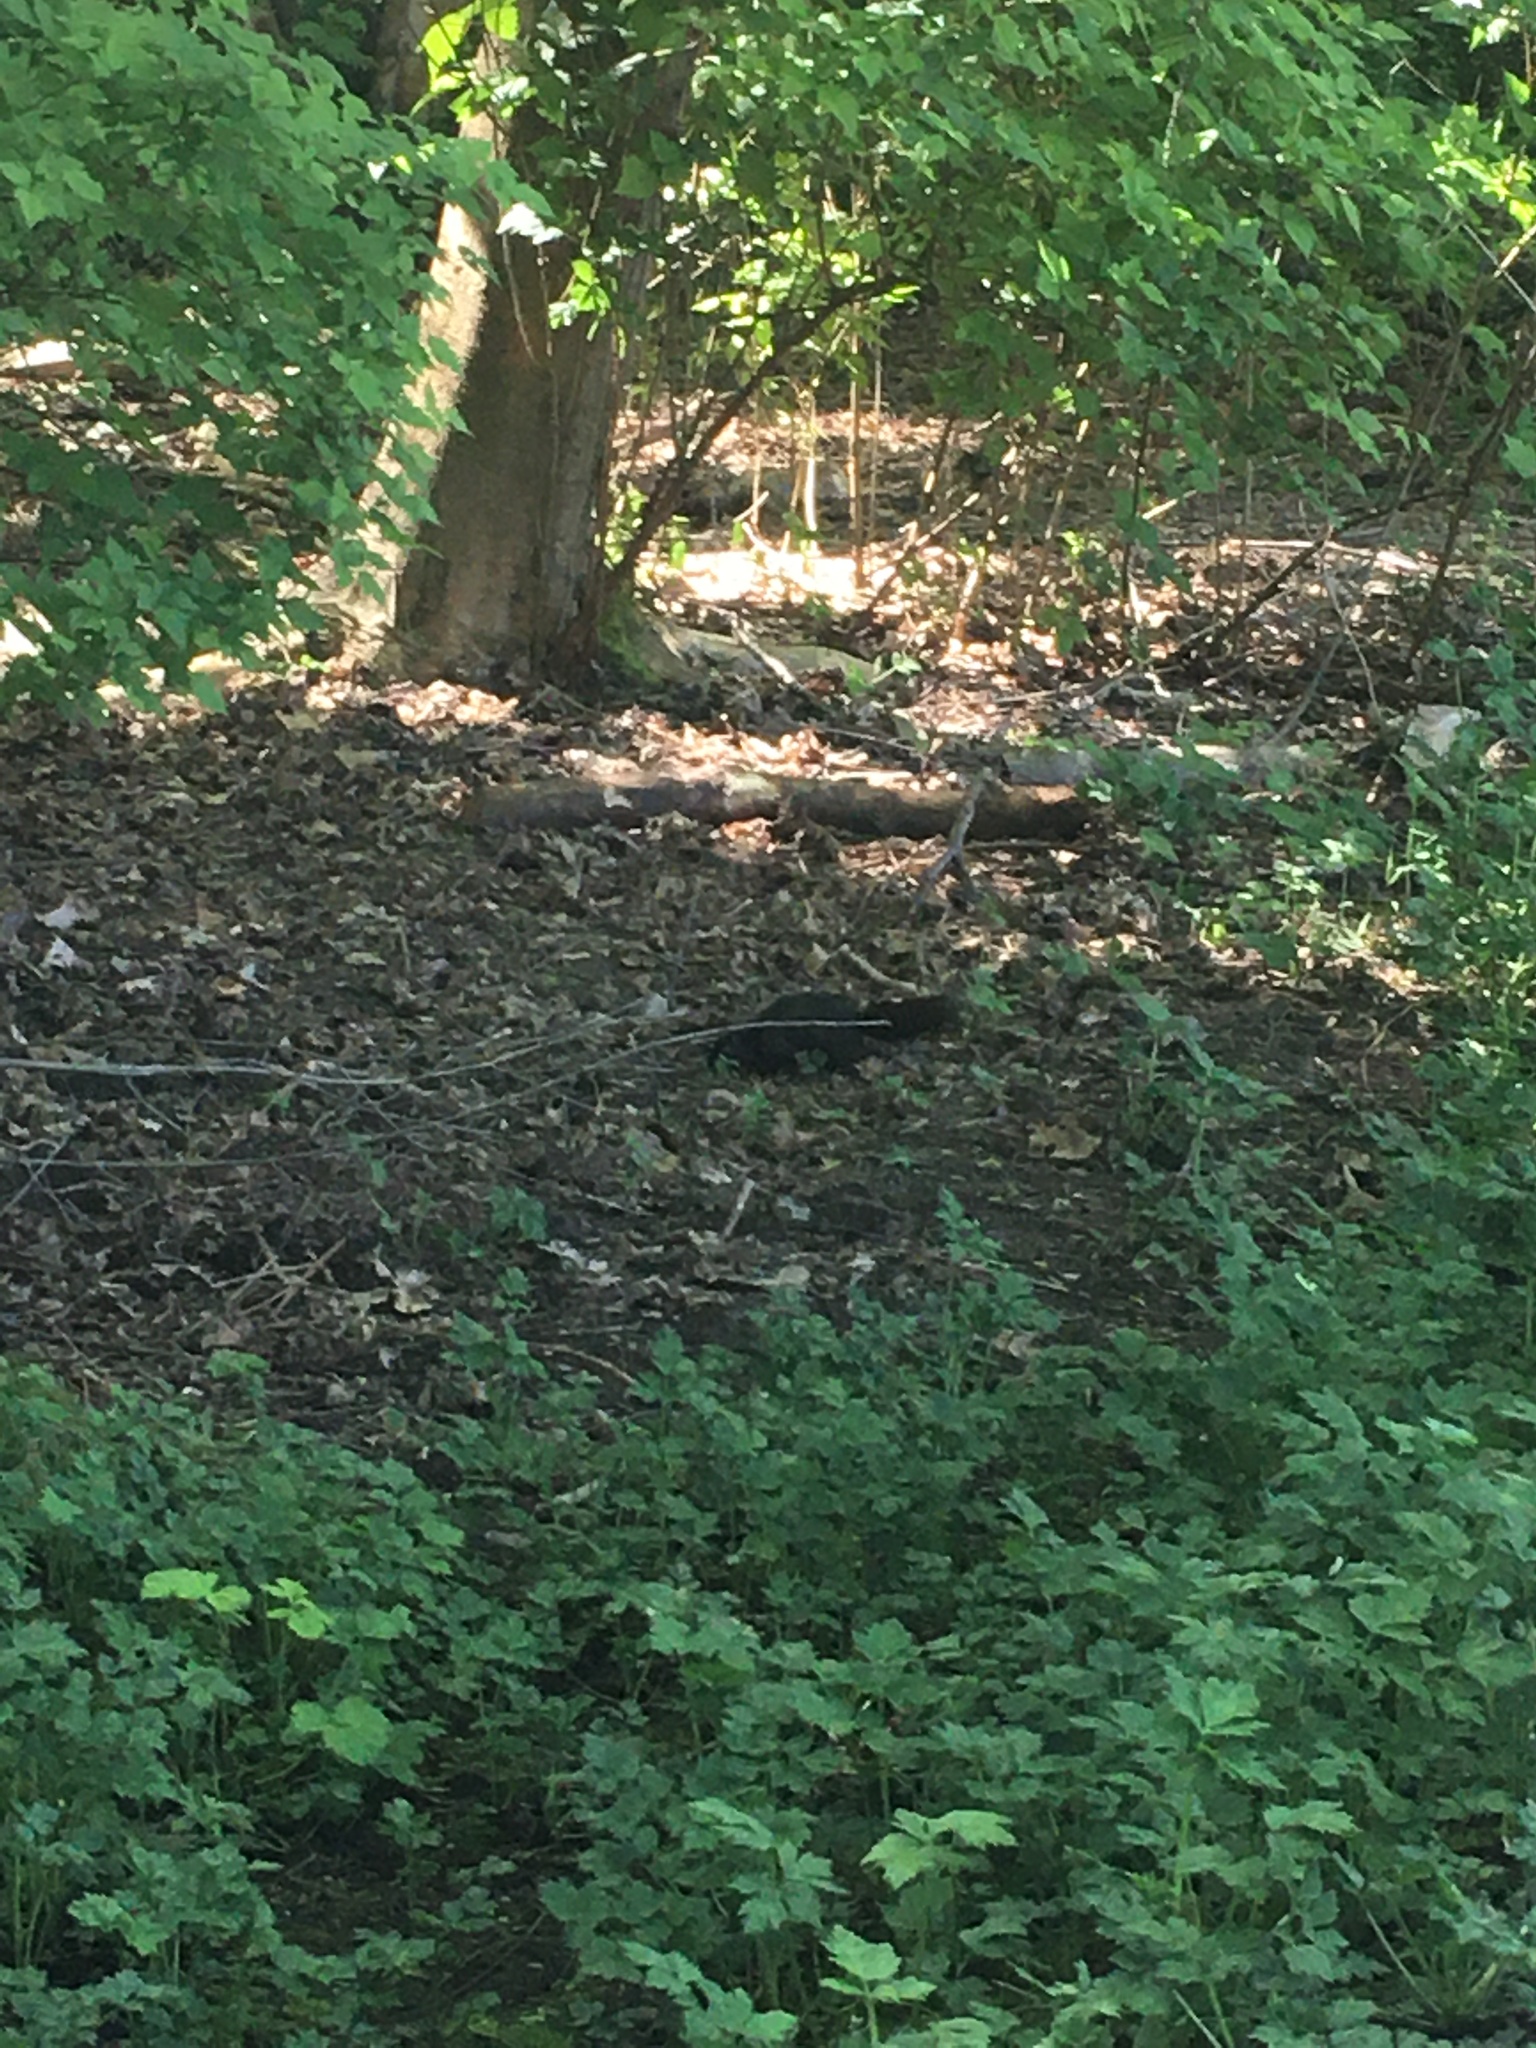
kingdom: Animalia
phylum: Chordata
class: Mammalia
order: Rodentia
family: Sciuridae
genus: Sciurus
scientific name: Sciurus carolinensis
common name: Eastern gray squirrel
